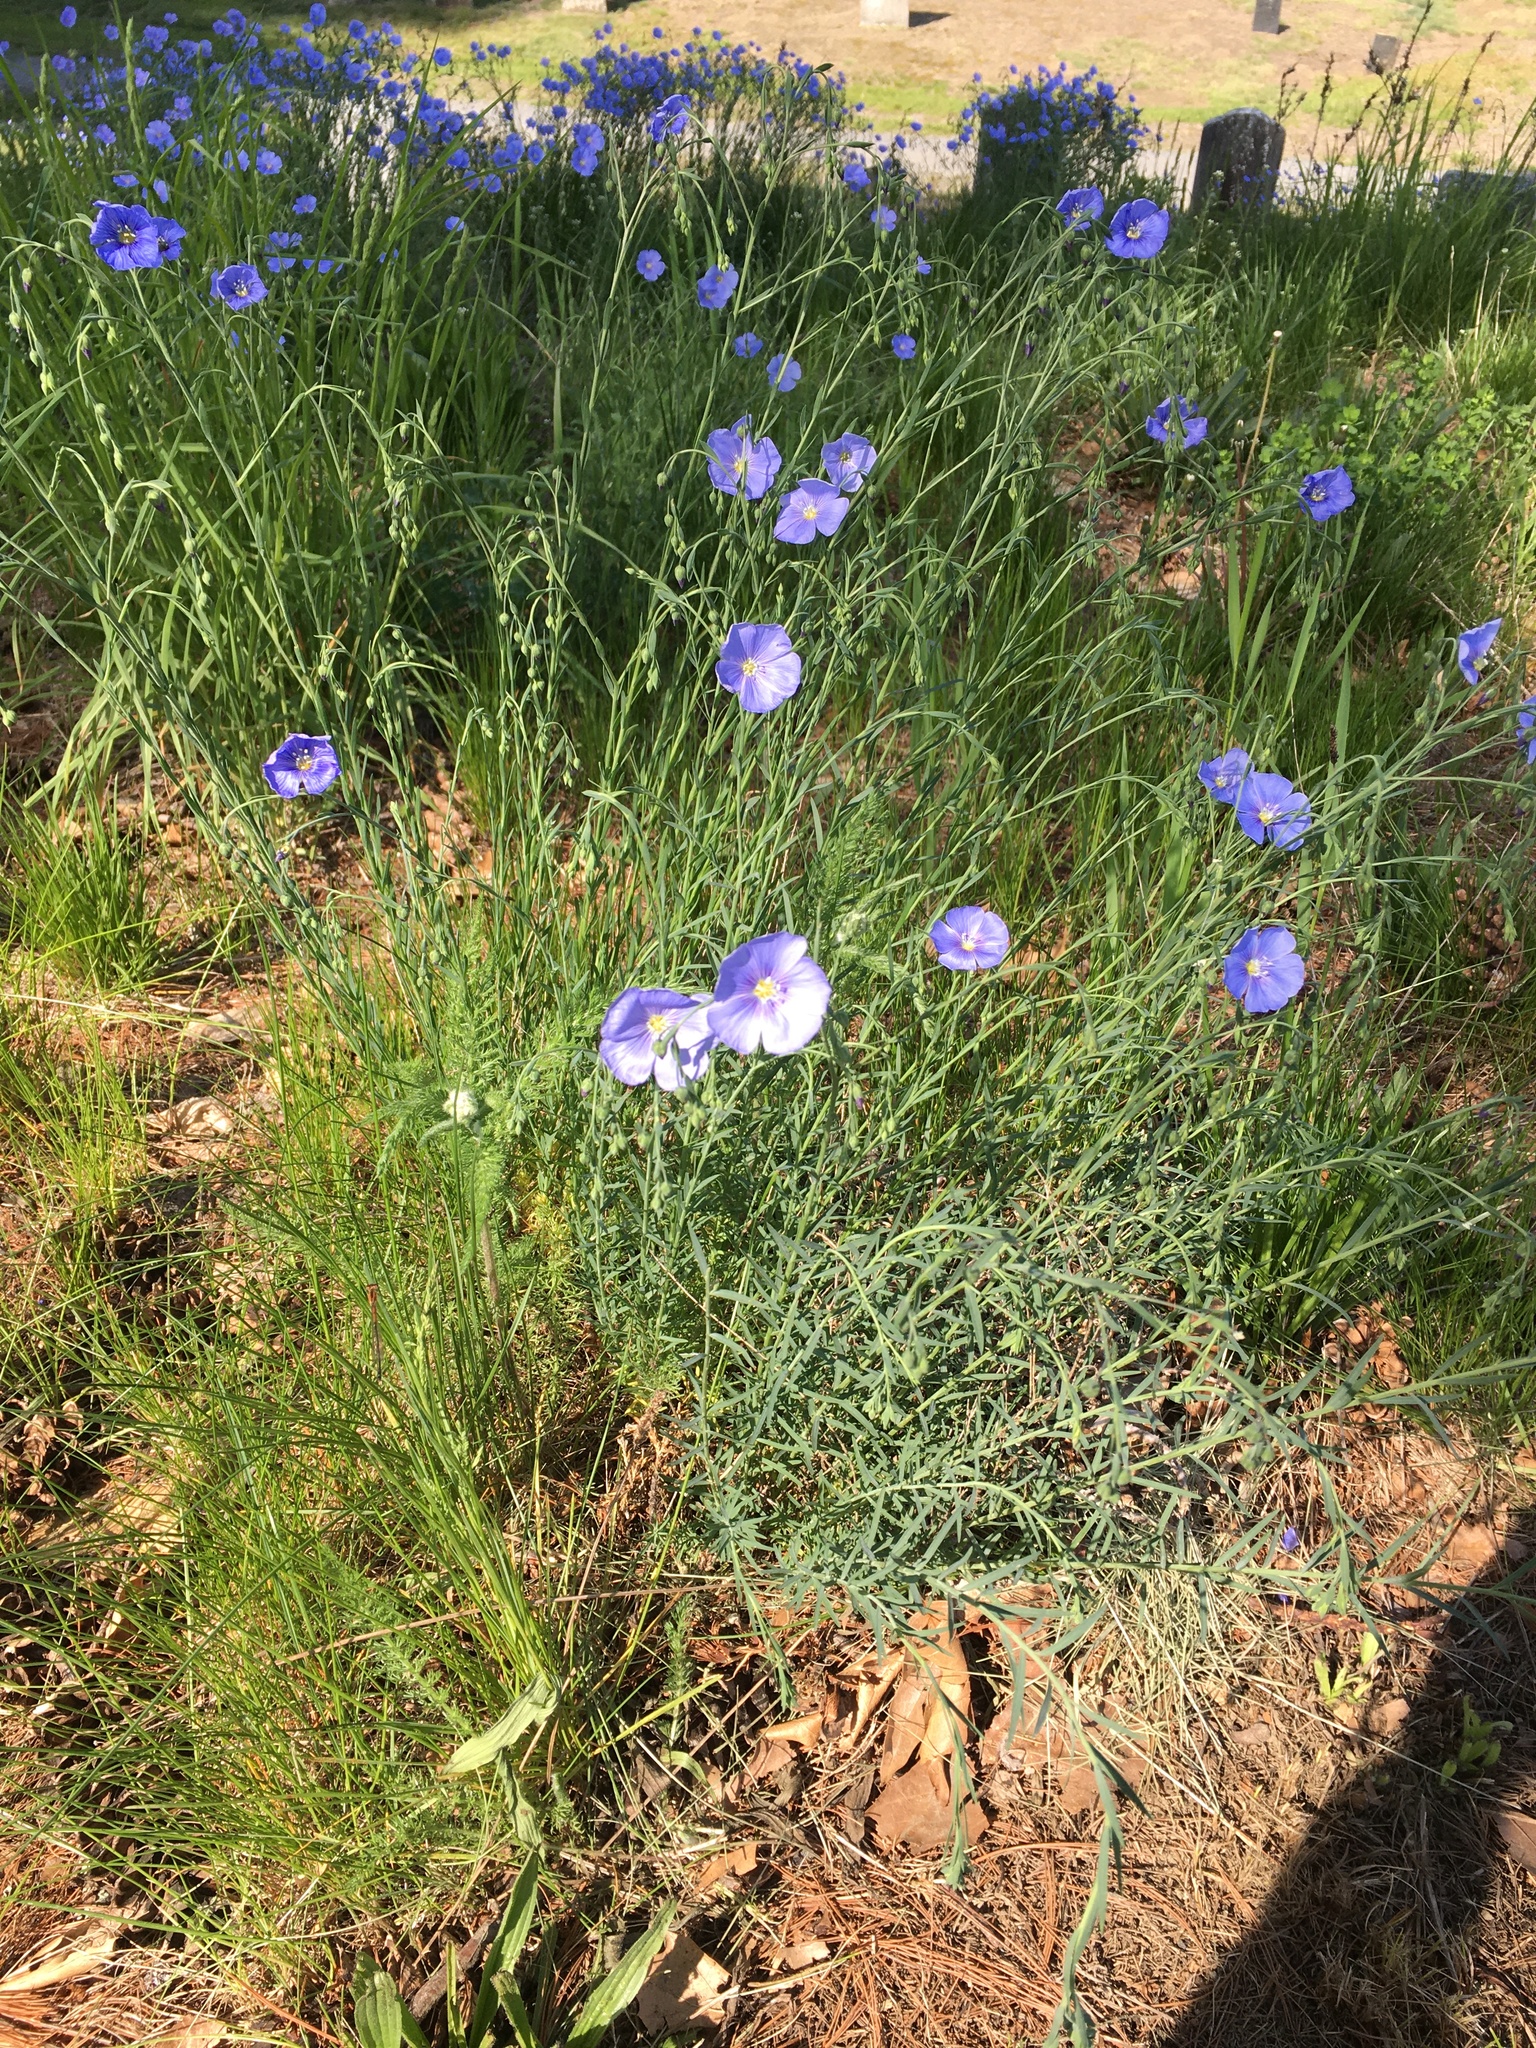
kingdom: Plantae
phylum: Tracheophyta
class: Magnoliopsida
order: Malpighiales
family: Linaceae
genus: Linum
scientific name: Linum usitatissimum
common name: Flax
